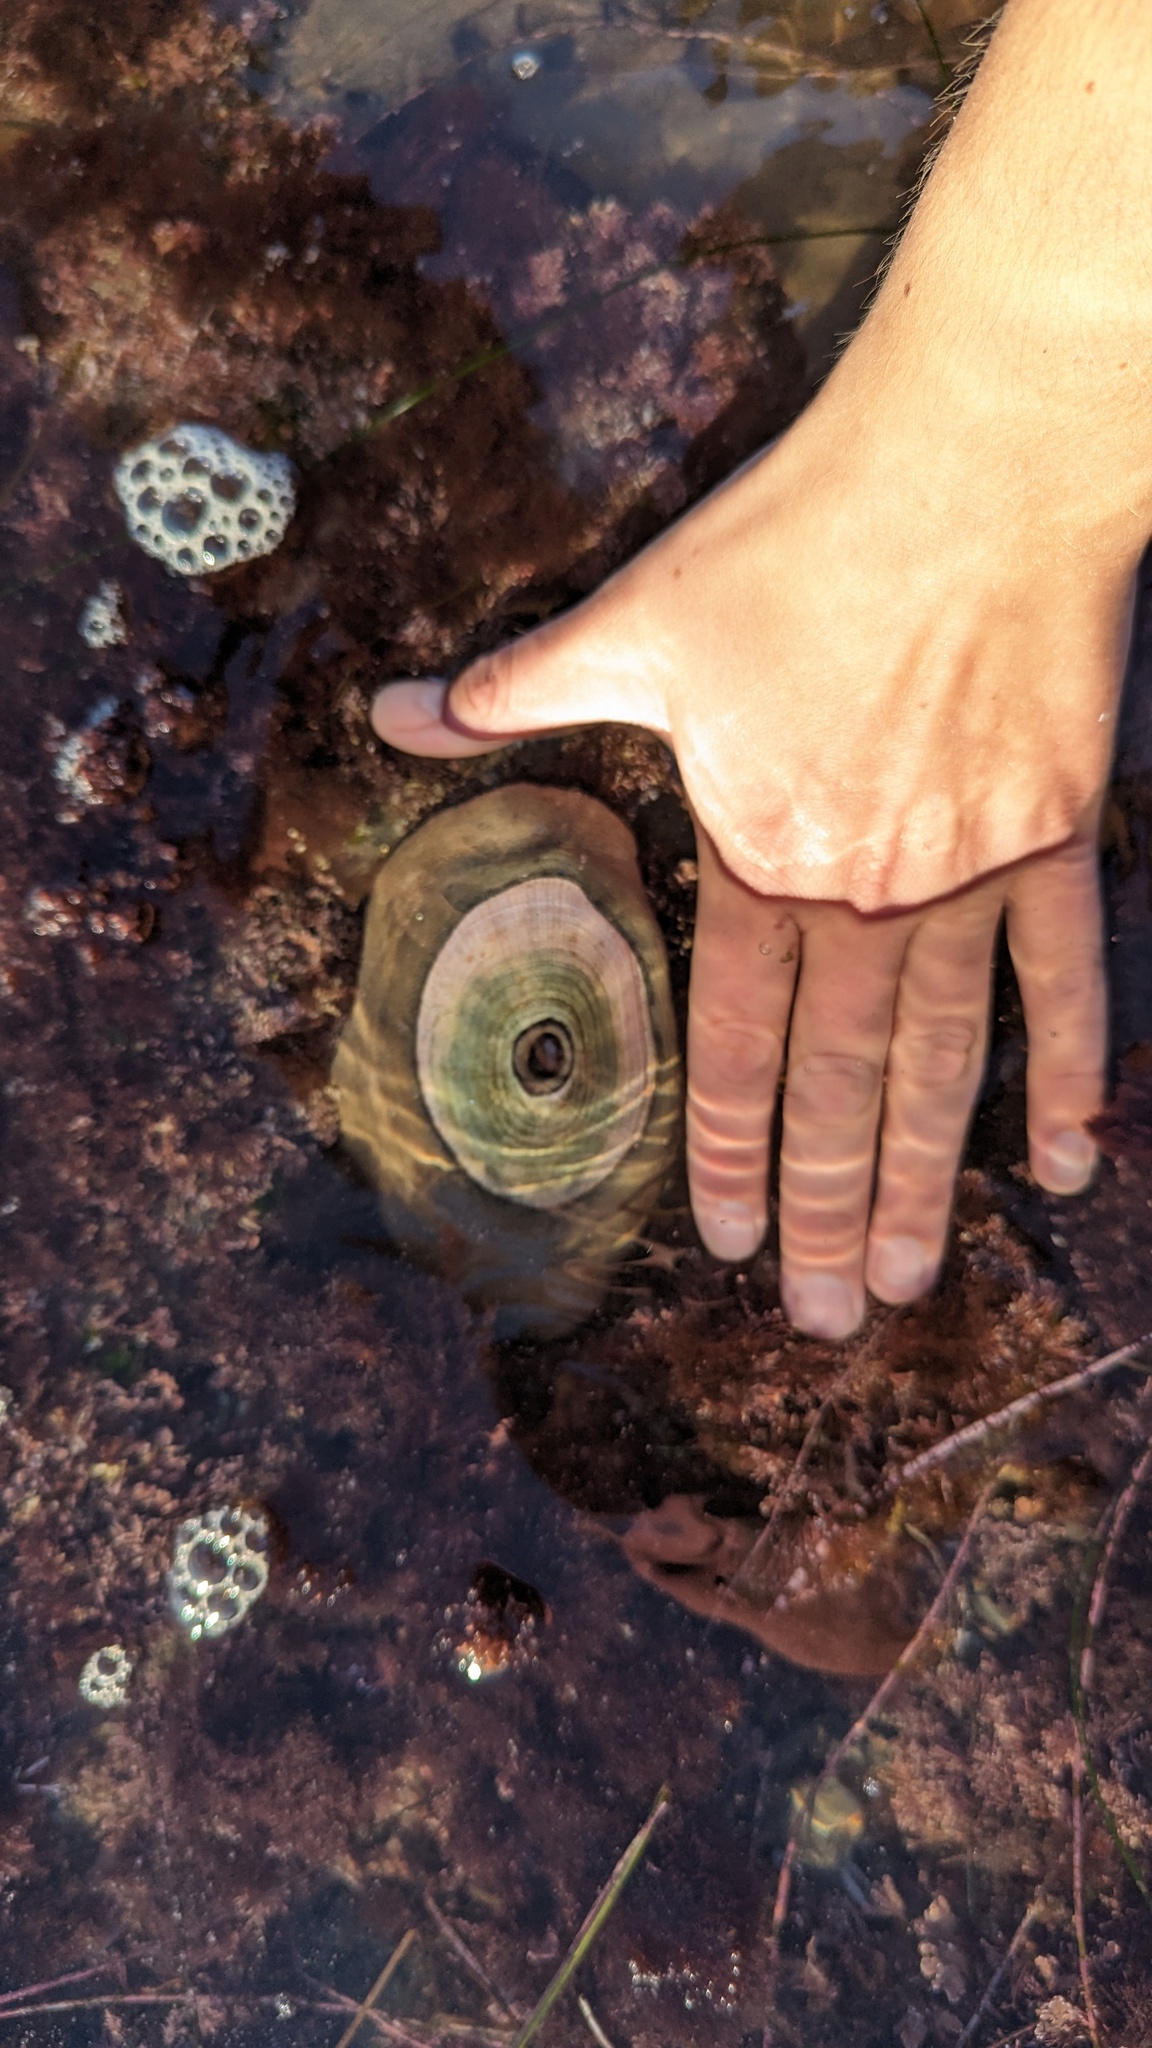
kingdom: Animalia
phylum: Mollusca
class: Gastropoda
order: Lepetellida
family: Fissurellidae
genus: Megathura
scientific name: Megathura crenulata
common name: Giant keyhole limpet
